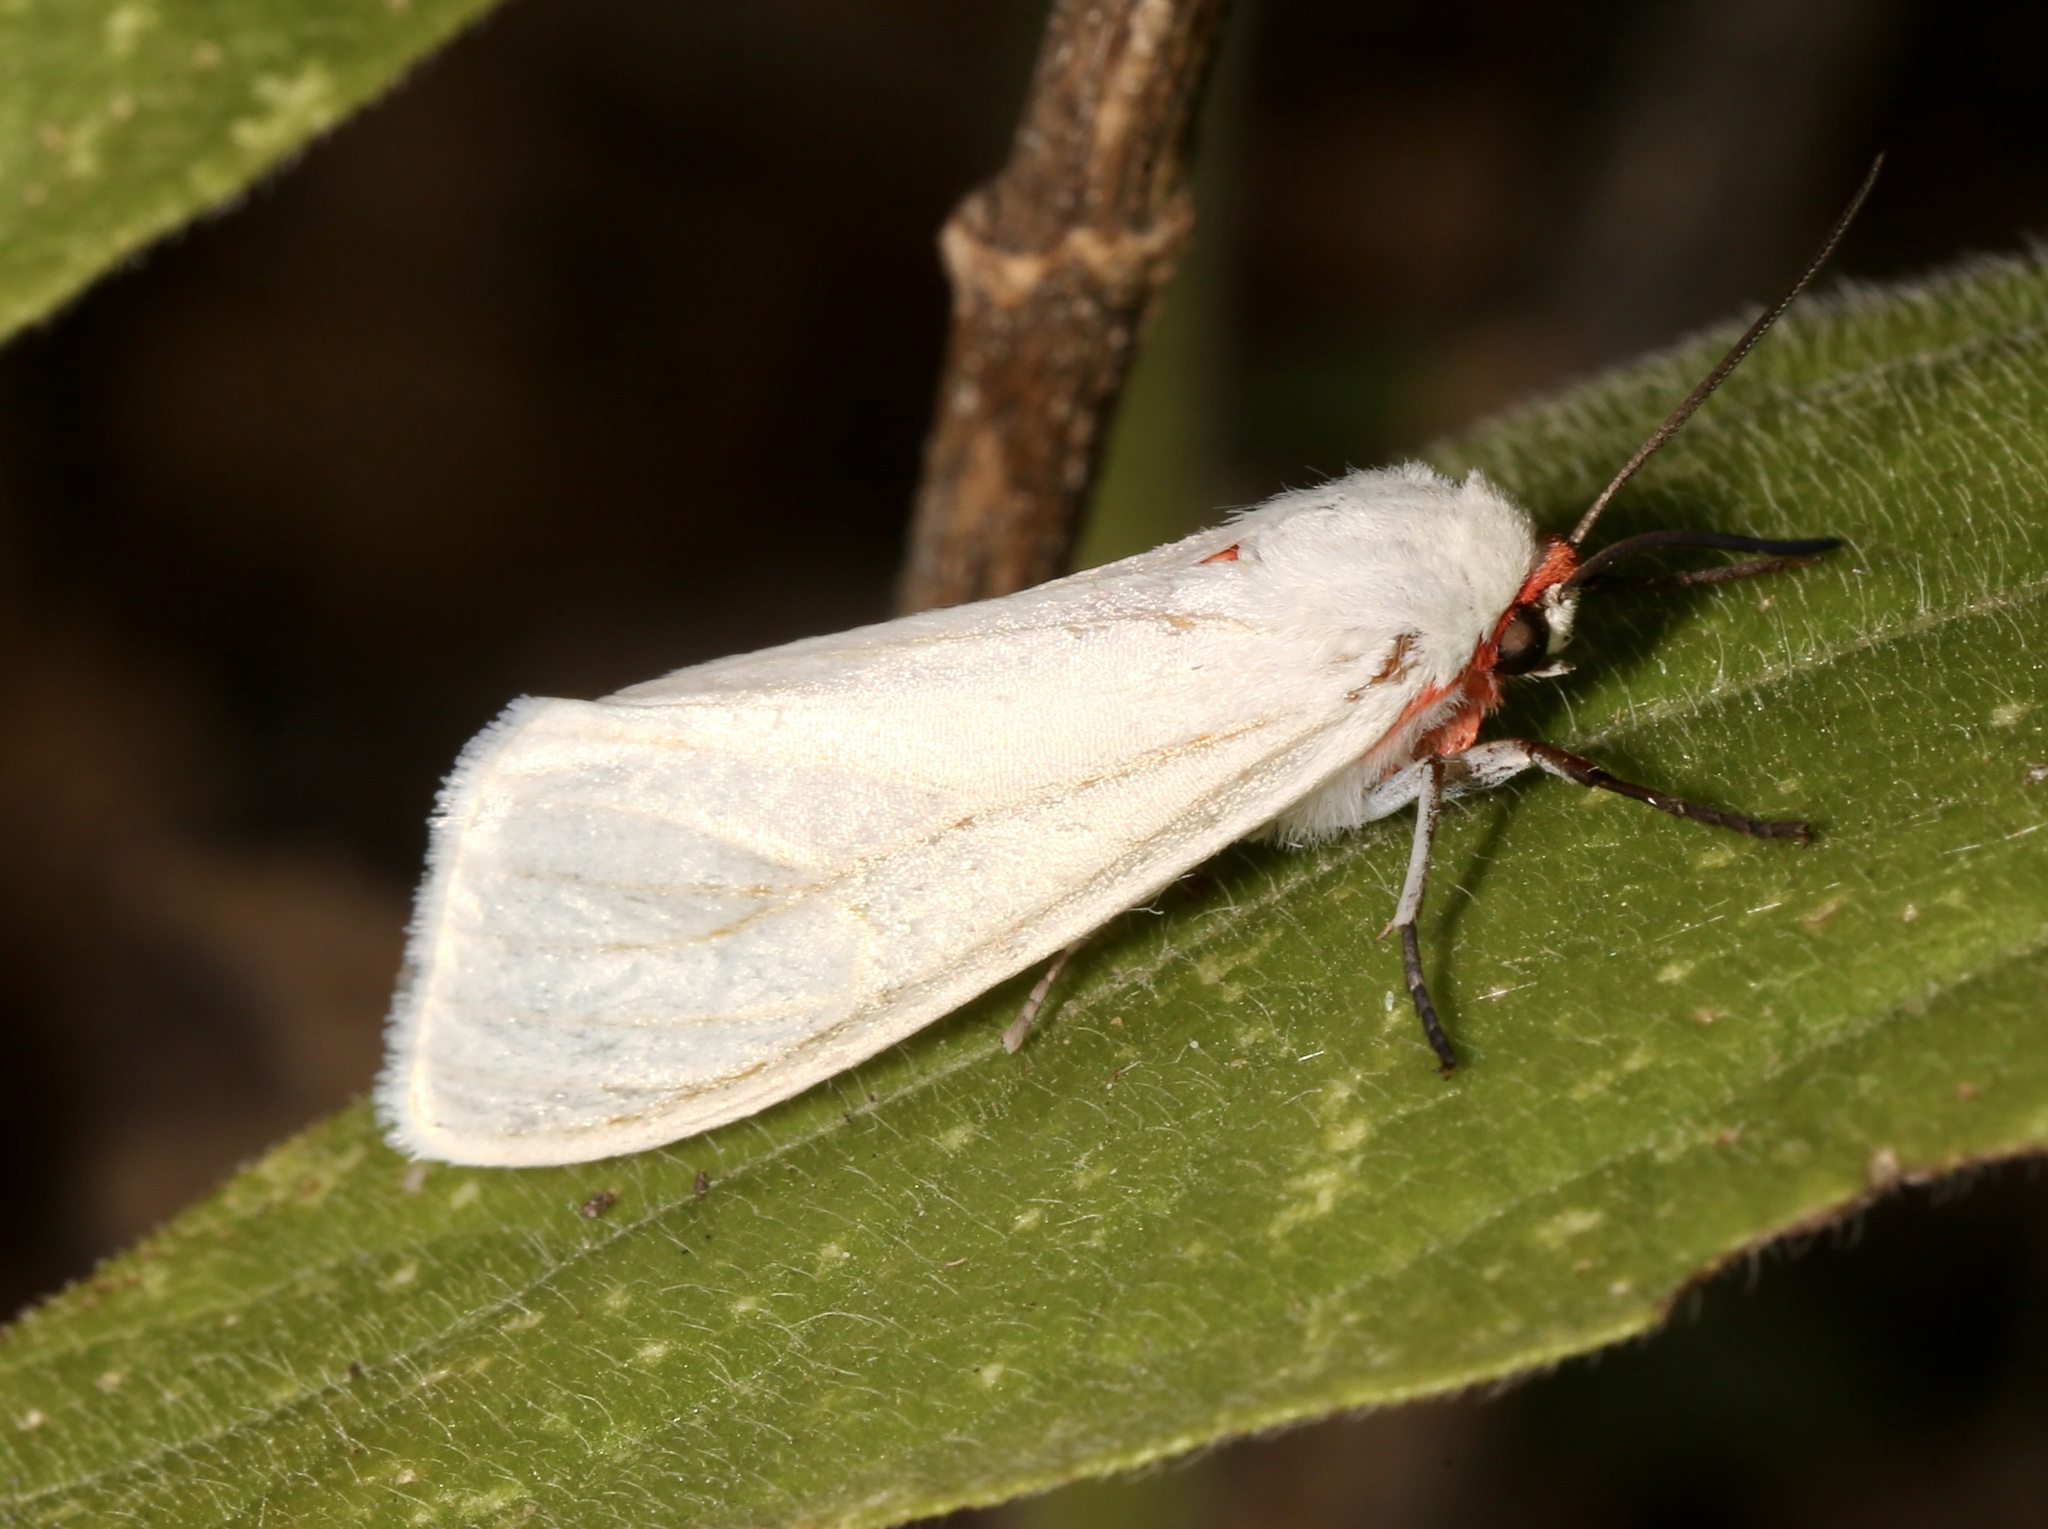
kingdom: Animalia
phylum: Arthropoda
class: Insecta
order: Lepidoptera
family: Erebidae
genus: Pygarctia
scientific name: Pygarctia roseicapitis
